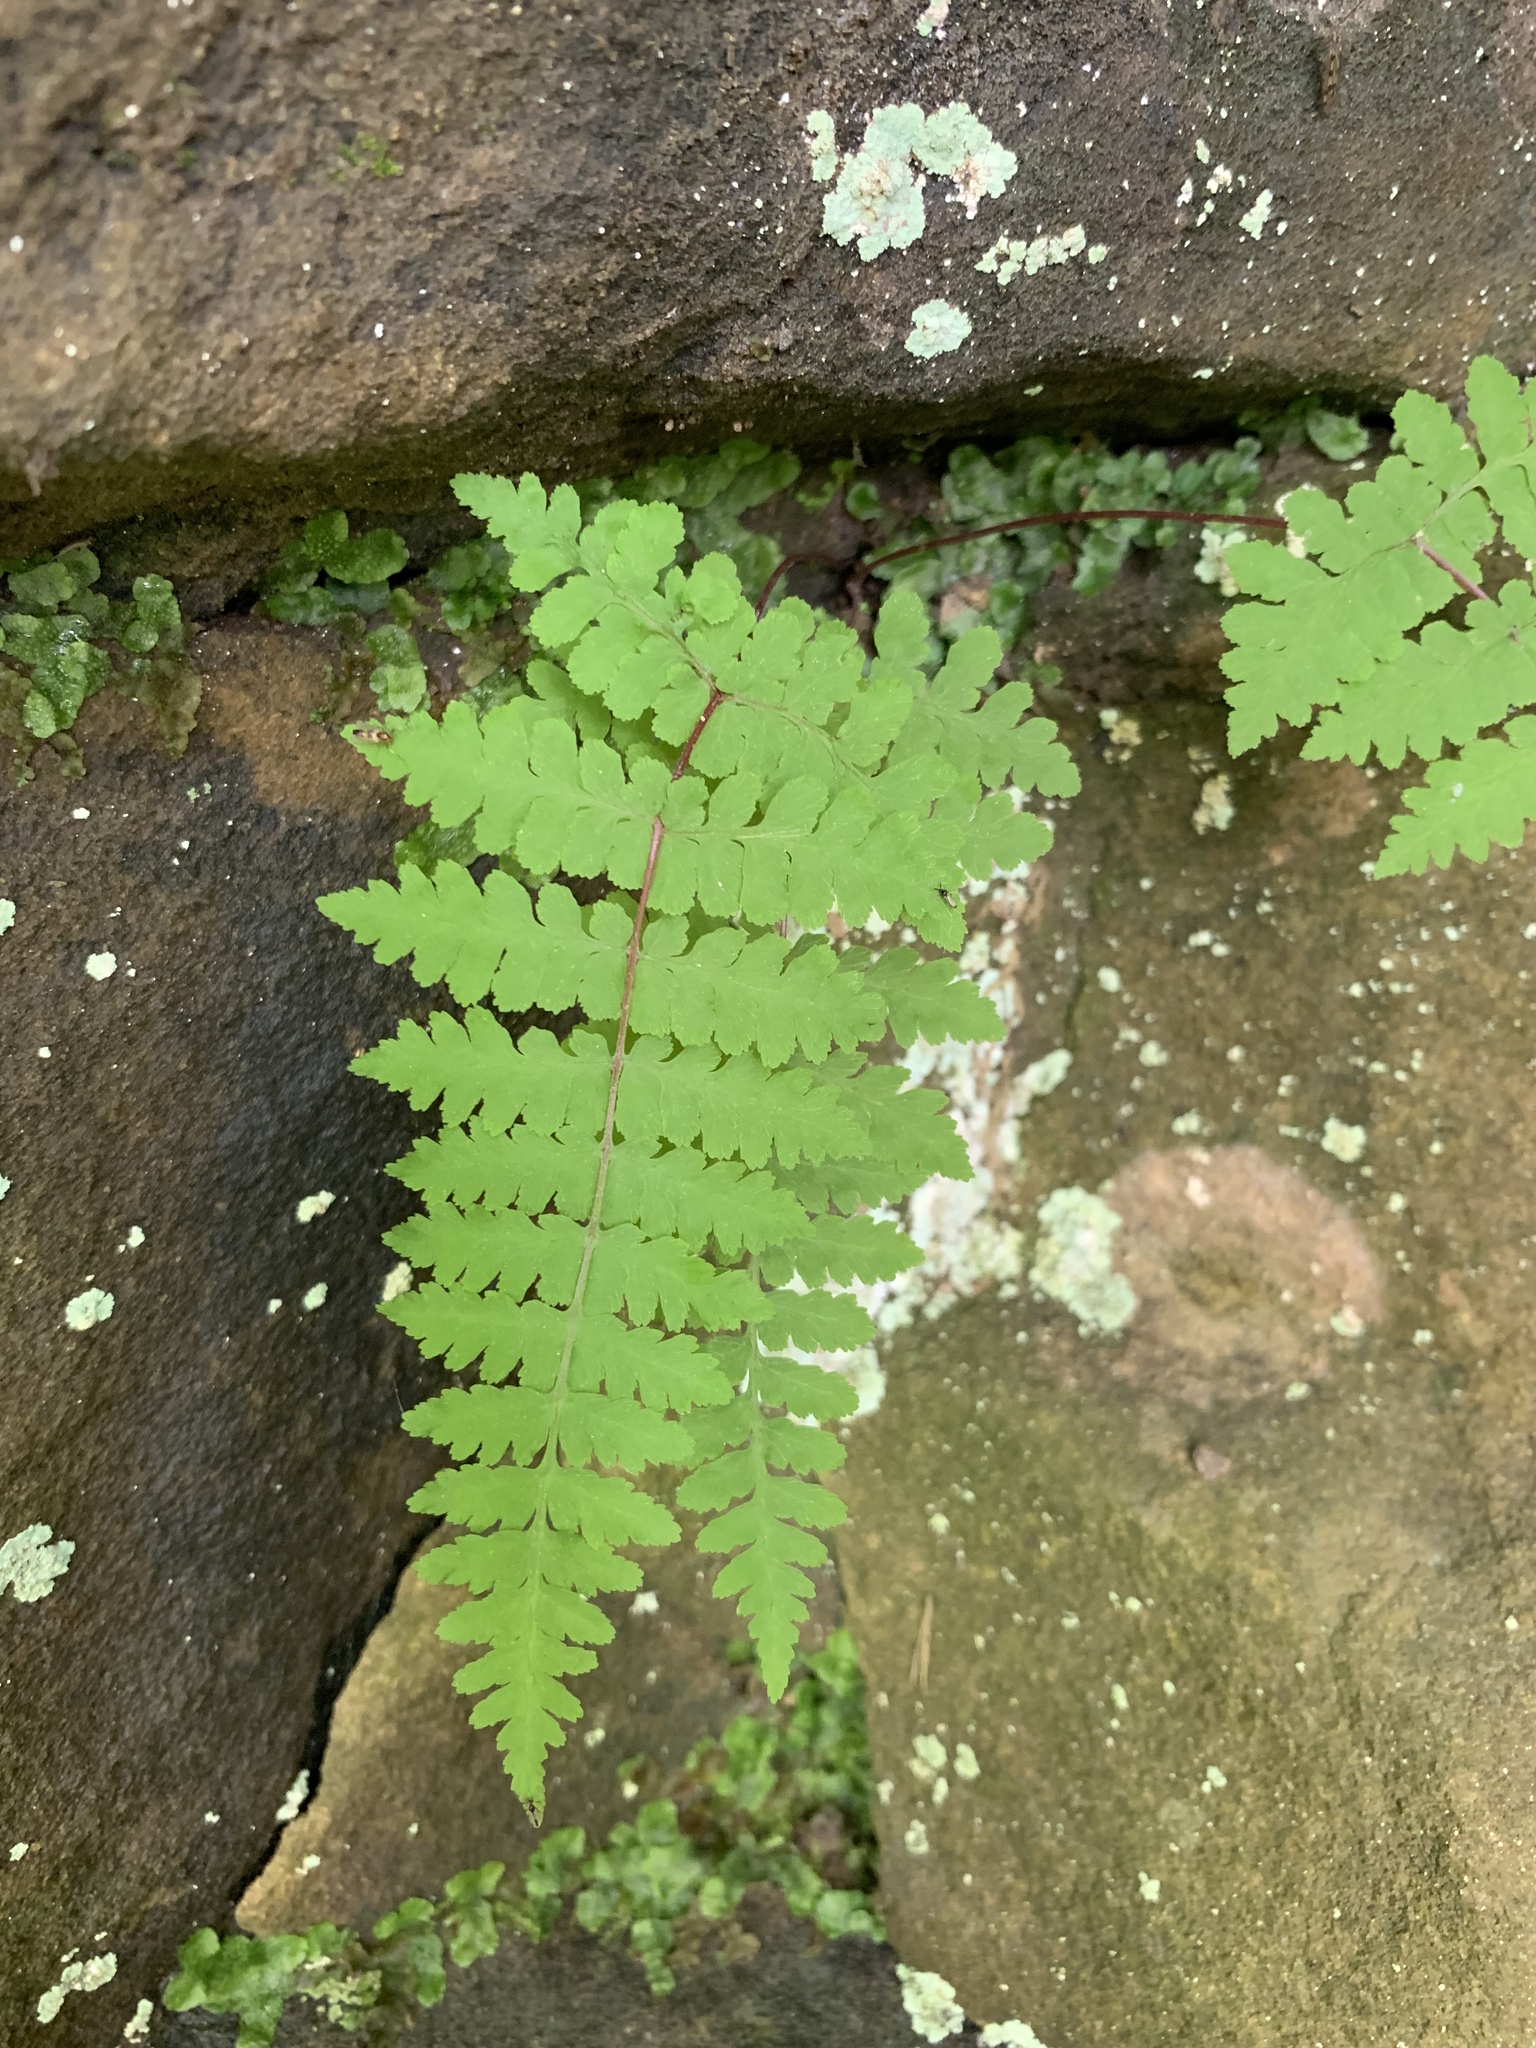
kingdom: Plantae
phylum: Tracheophyta
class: Polypodiopsida
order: Polypodiales
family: Cystopteridaceae
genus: Cystopteris
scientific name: Cystopteris bulbifera
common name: Bulblet bladder fern
